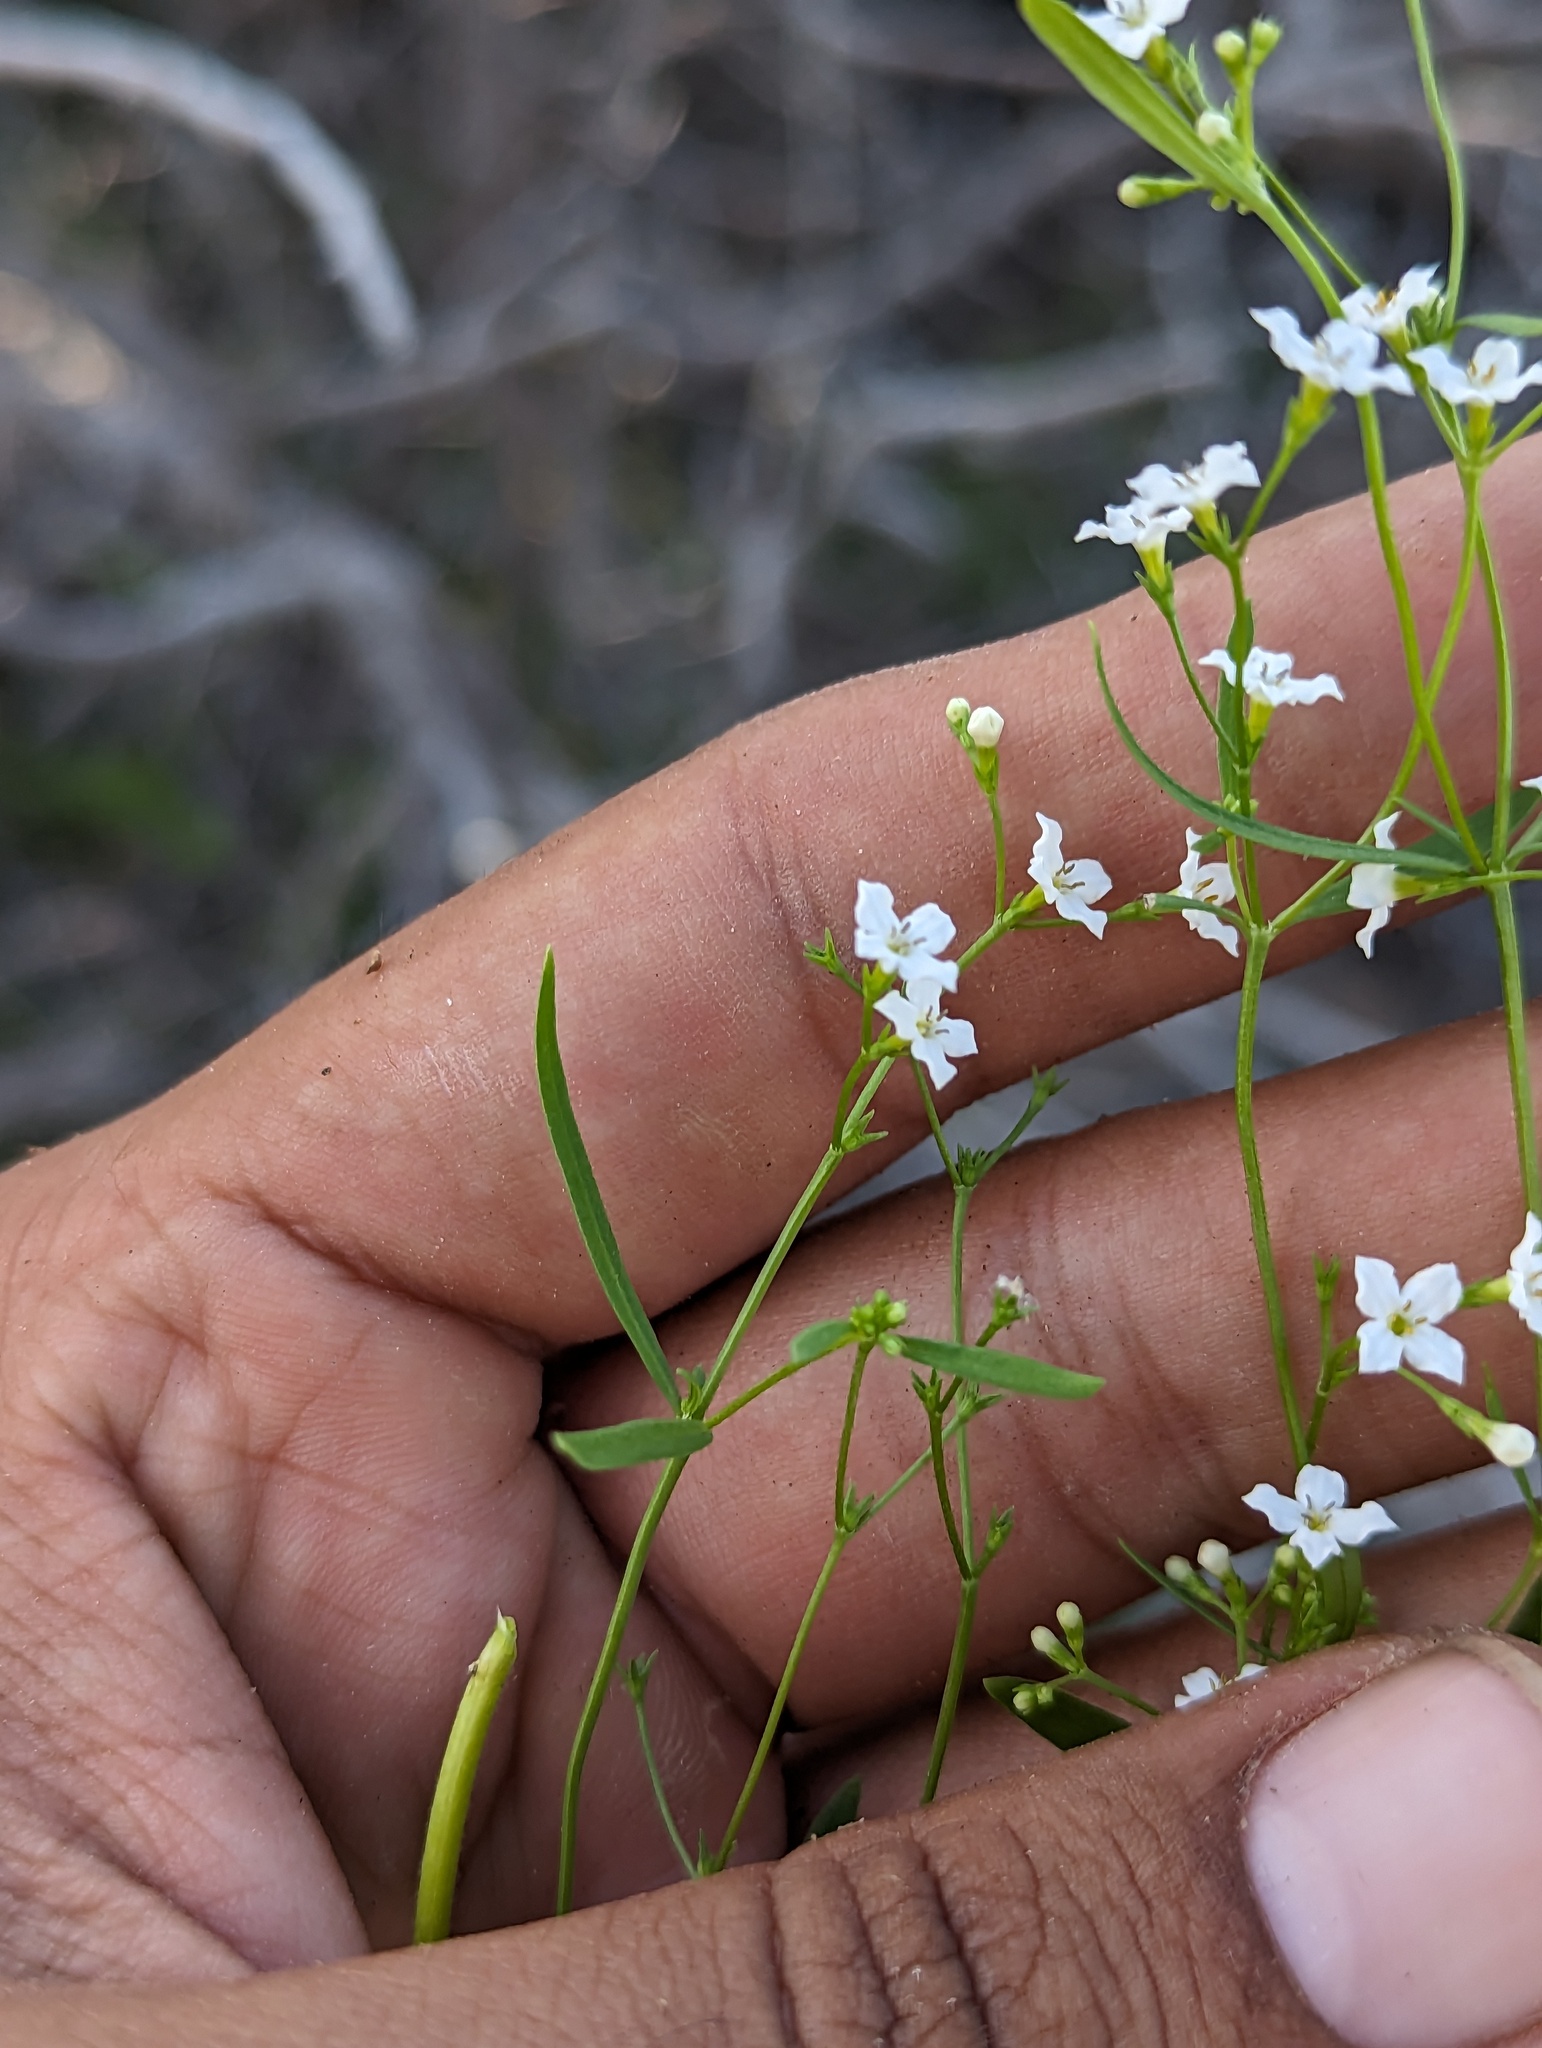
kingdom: Plantae
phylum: Tracheophyta
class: Magnoliopsida
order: Gentianales
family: Rubiaceae
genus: Stenotis
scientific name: Stenotis arenaria
